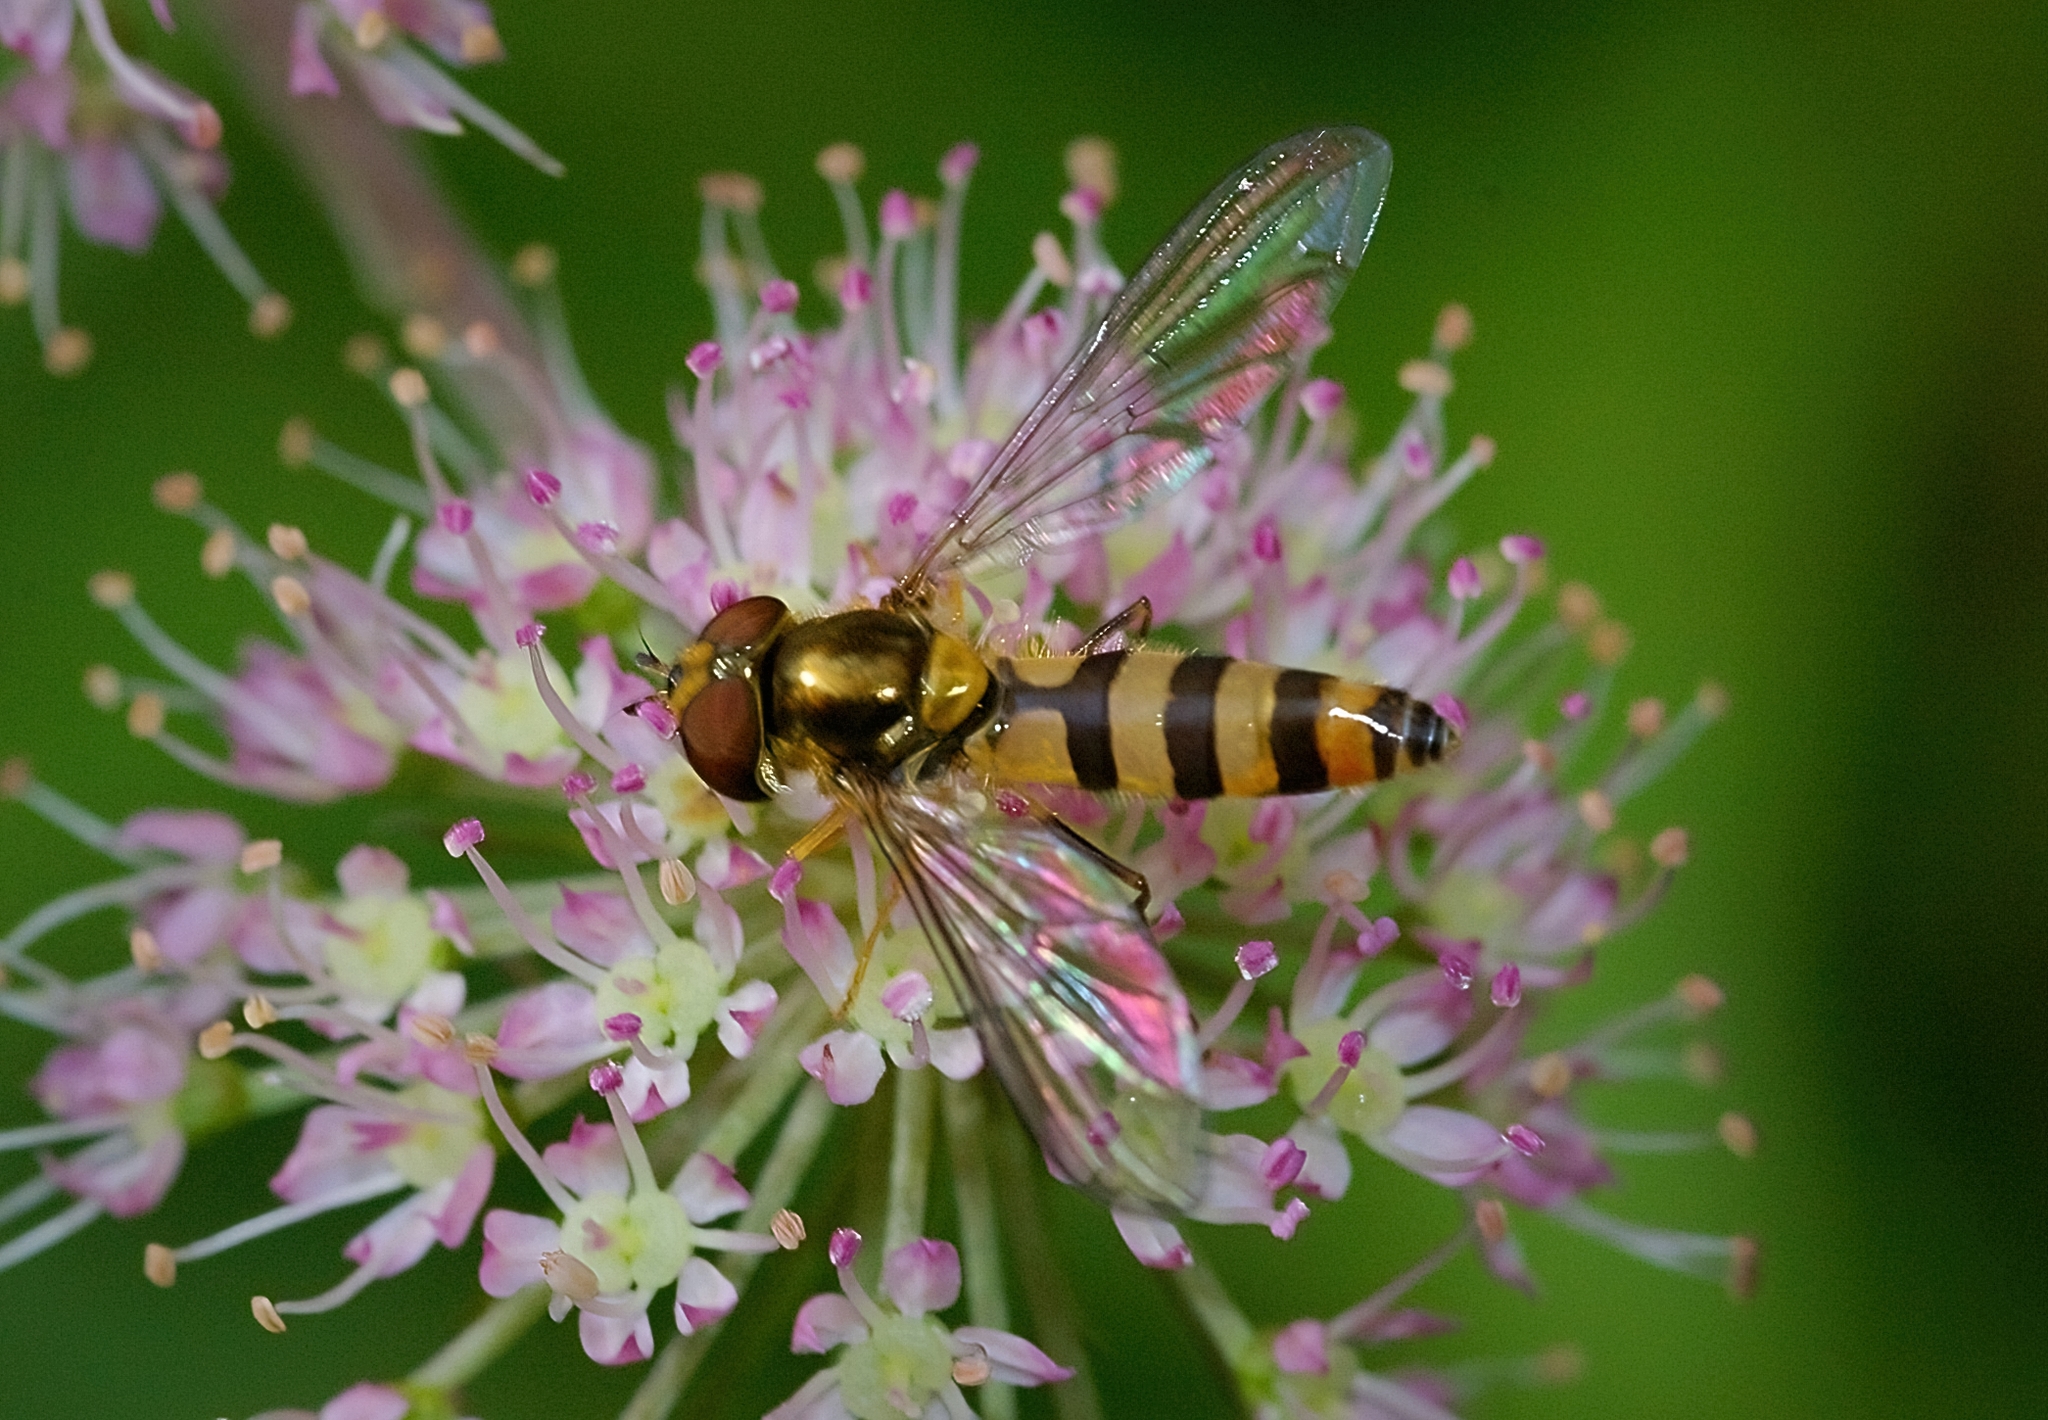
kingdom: Animalia
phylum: Arthropoda
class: Insecta
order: Diptera
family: Syrphidae
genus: Meliscaeva
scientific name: Meliscaeva cinctella
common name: American thintail fly
